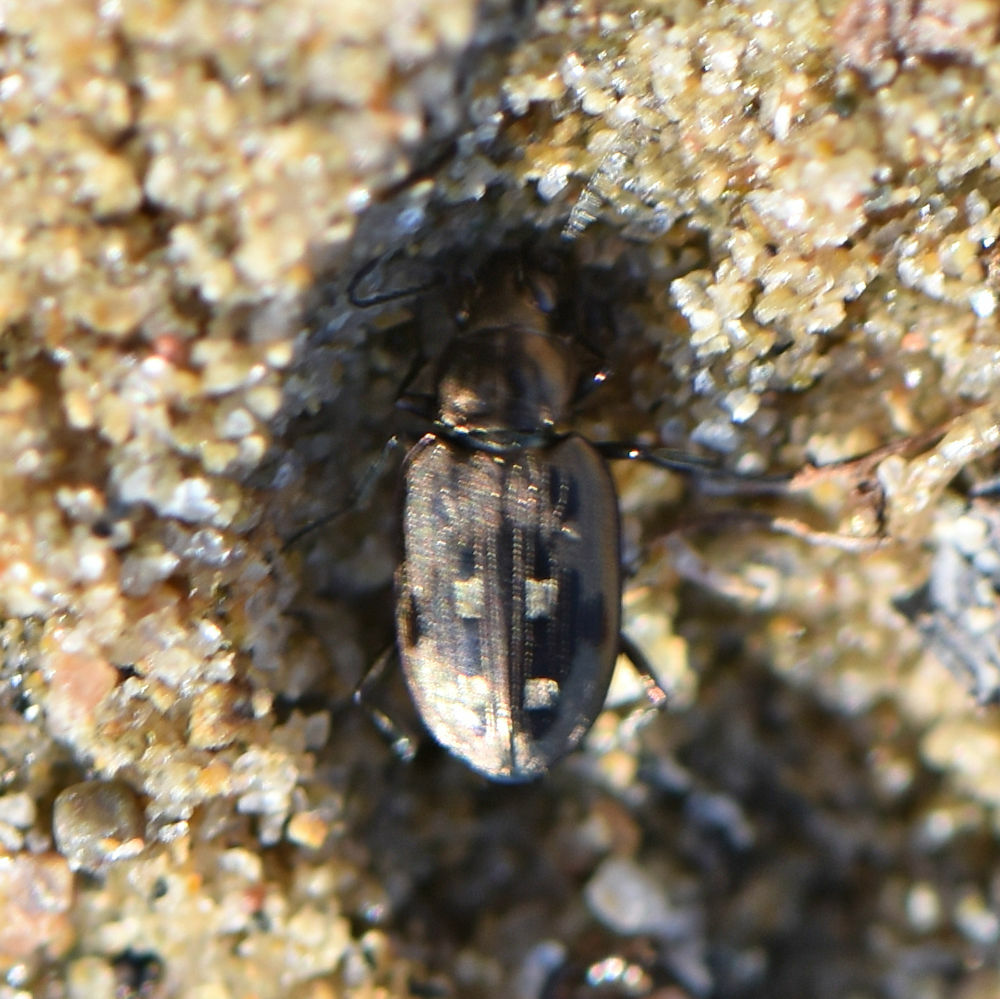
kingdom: Animalia
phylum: Arthropoda
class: Insecta
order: Coleoptera
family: Carabidae
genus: Bembidion
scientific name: Bembidion inaequale
